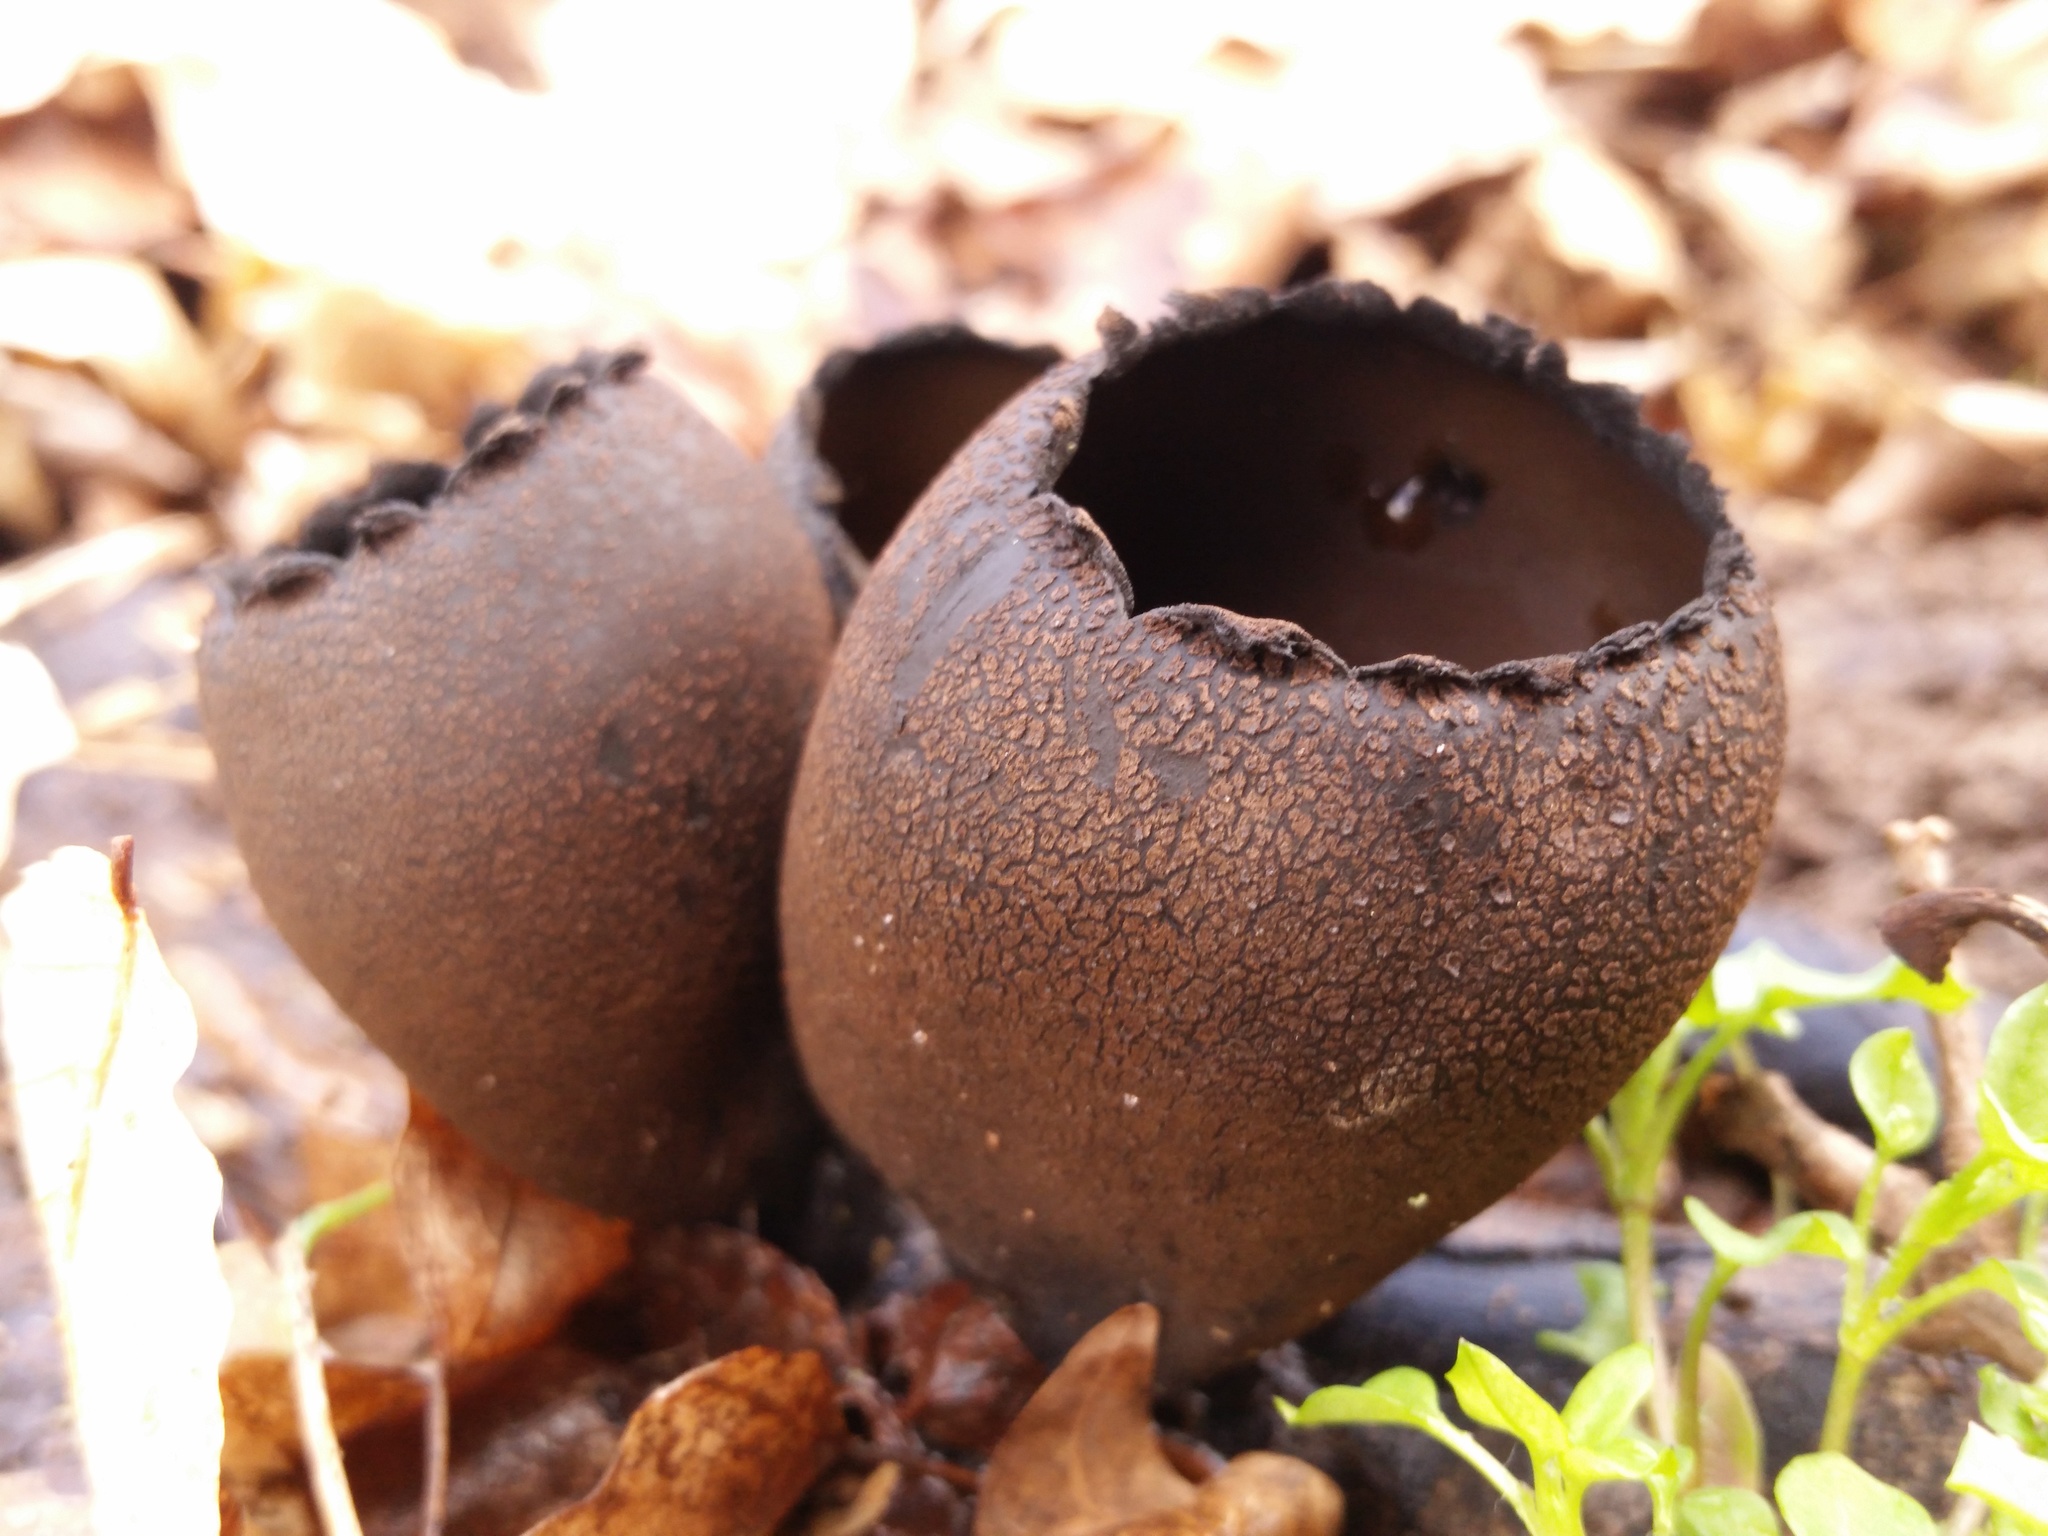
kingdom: Fungi
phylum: Ascomycota
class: Pezizomycetes
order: Pezizales
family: Sarcosomataceae
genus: Urnula
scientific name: Urnula craterium
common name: Devil's urn
